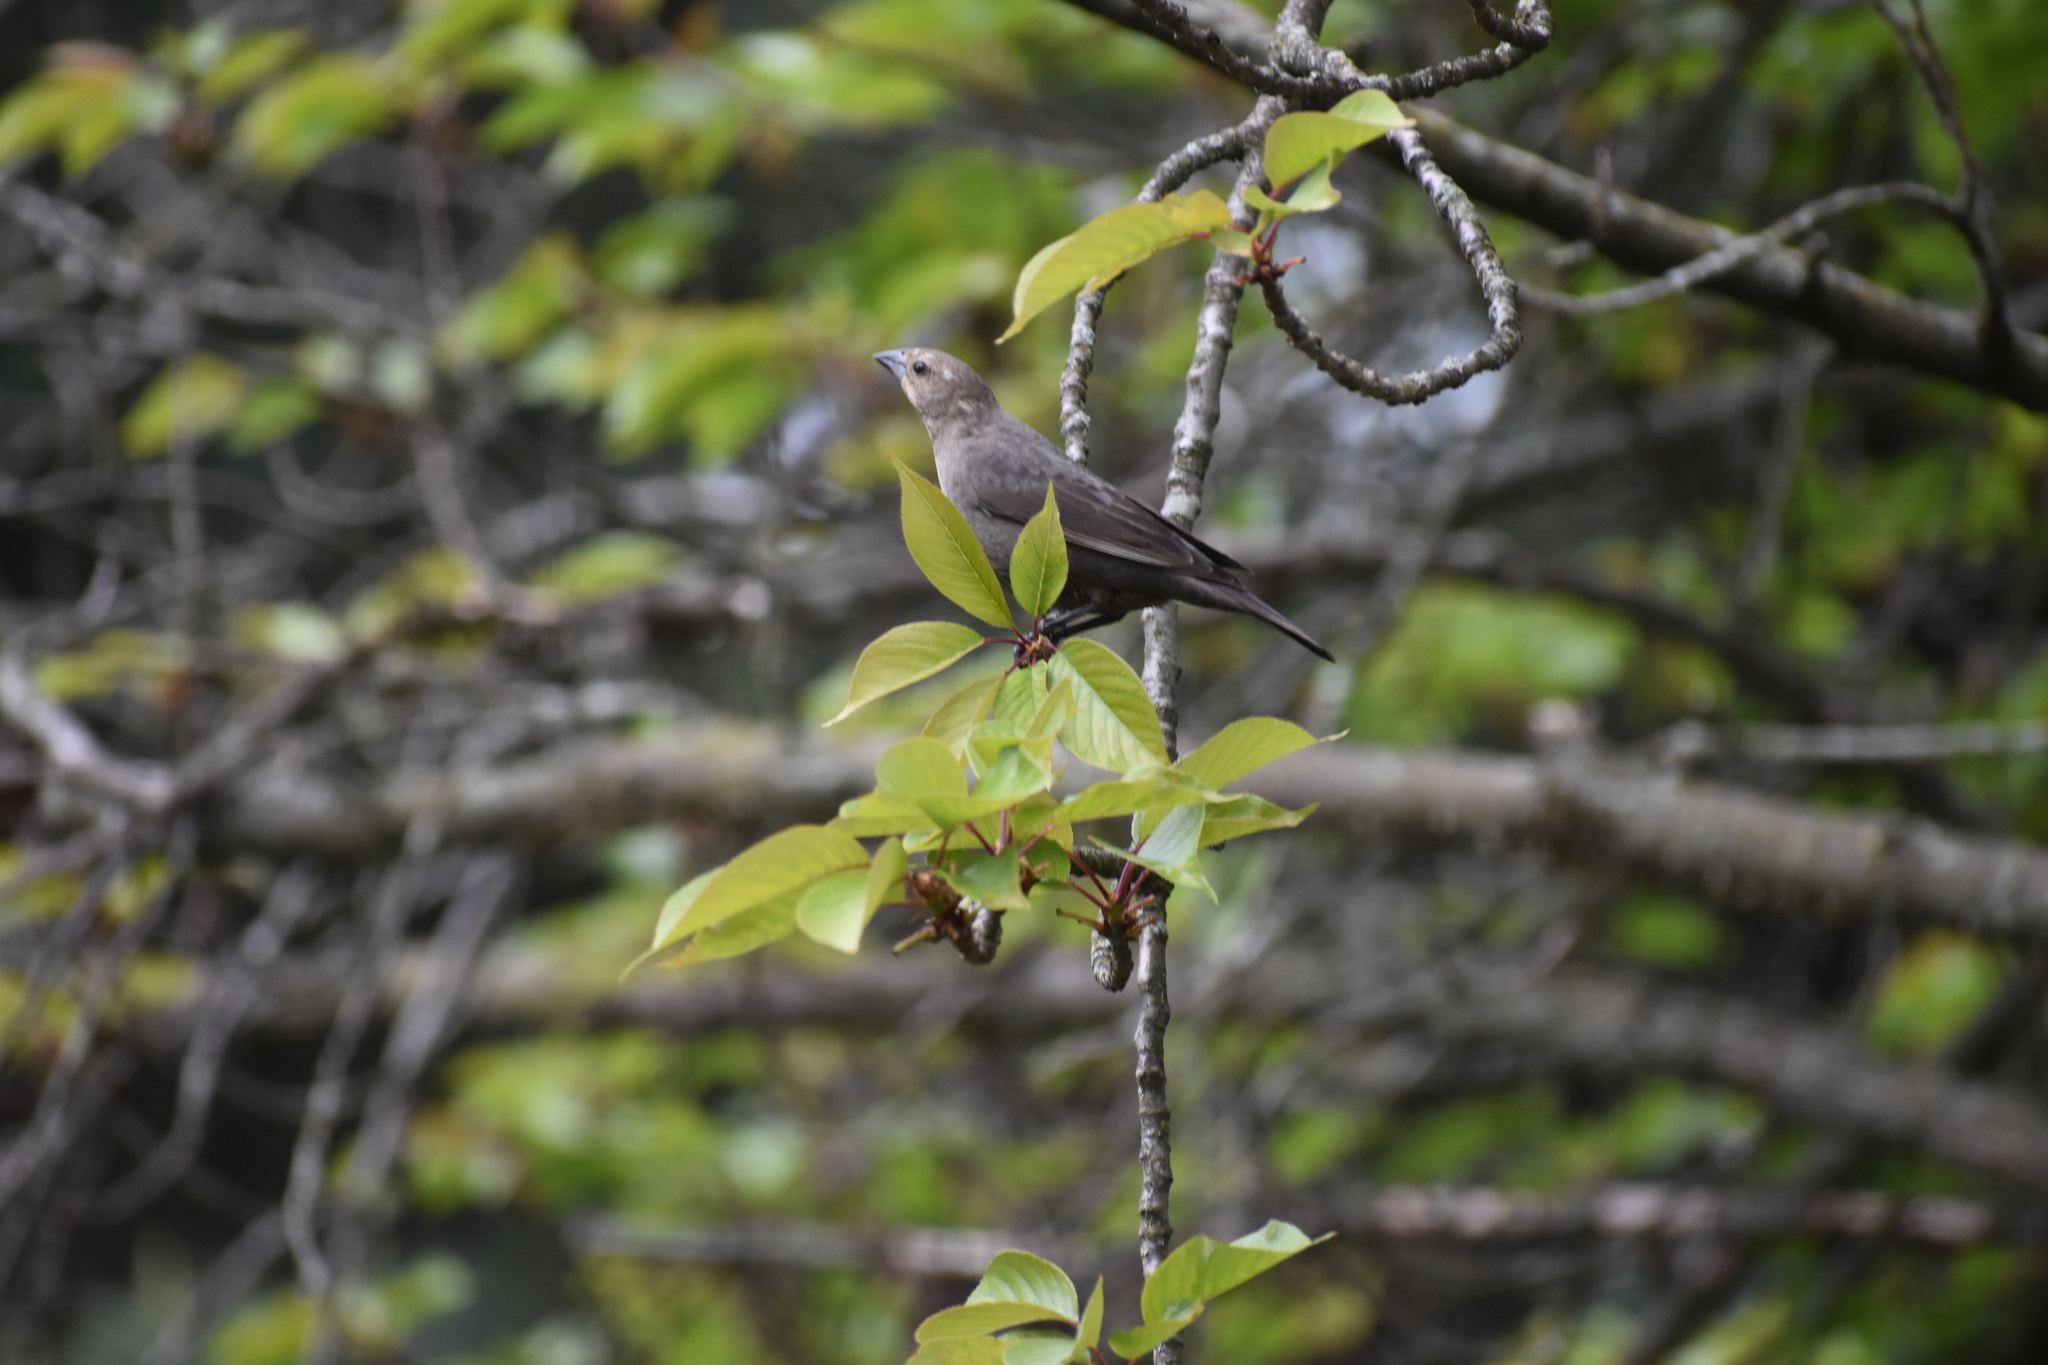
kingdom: Animalia
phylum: Chordata
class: Aves
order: Passeriformes
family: Icteridae
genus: Molothrus
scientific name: Molothrus ater
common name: Brown-headed cowbird
